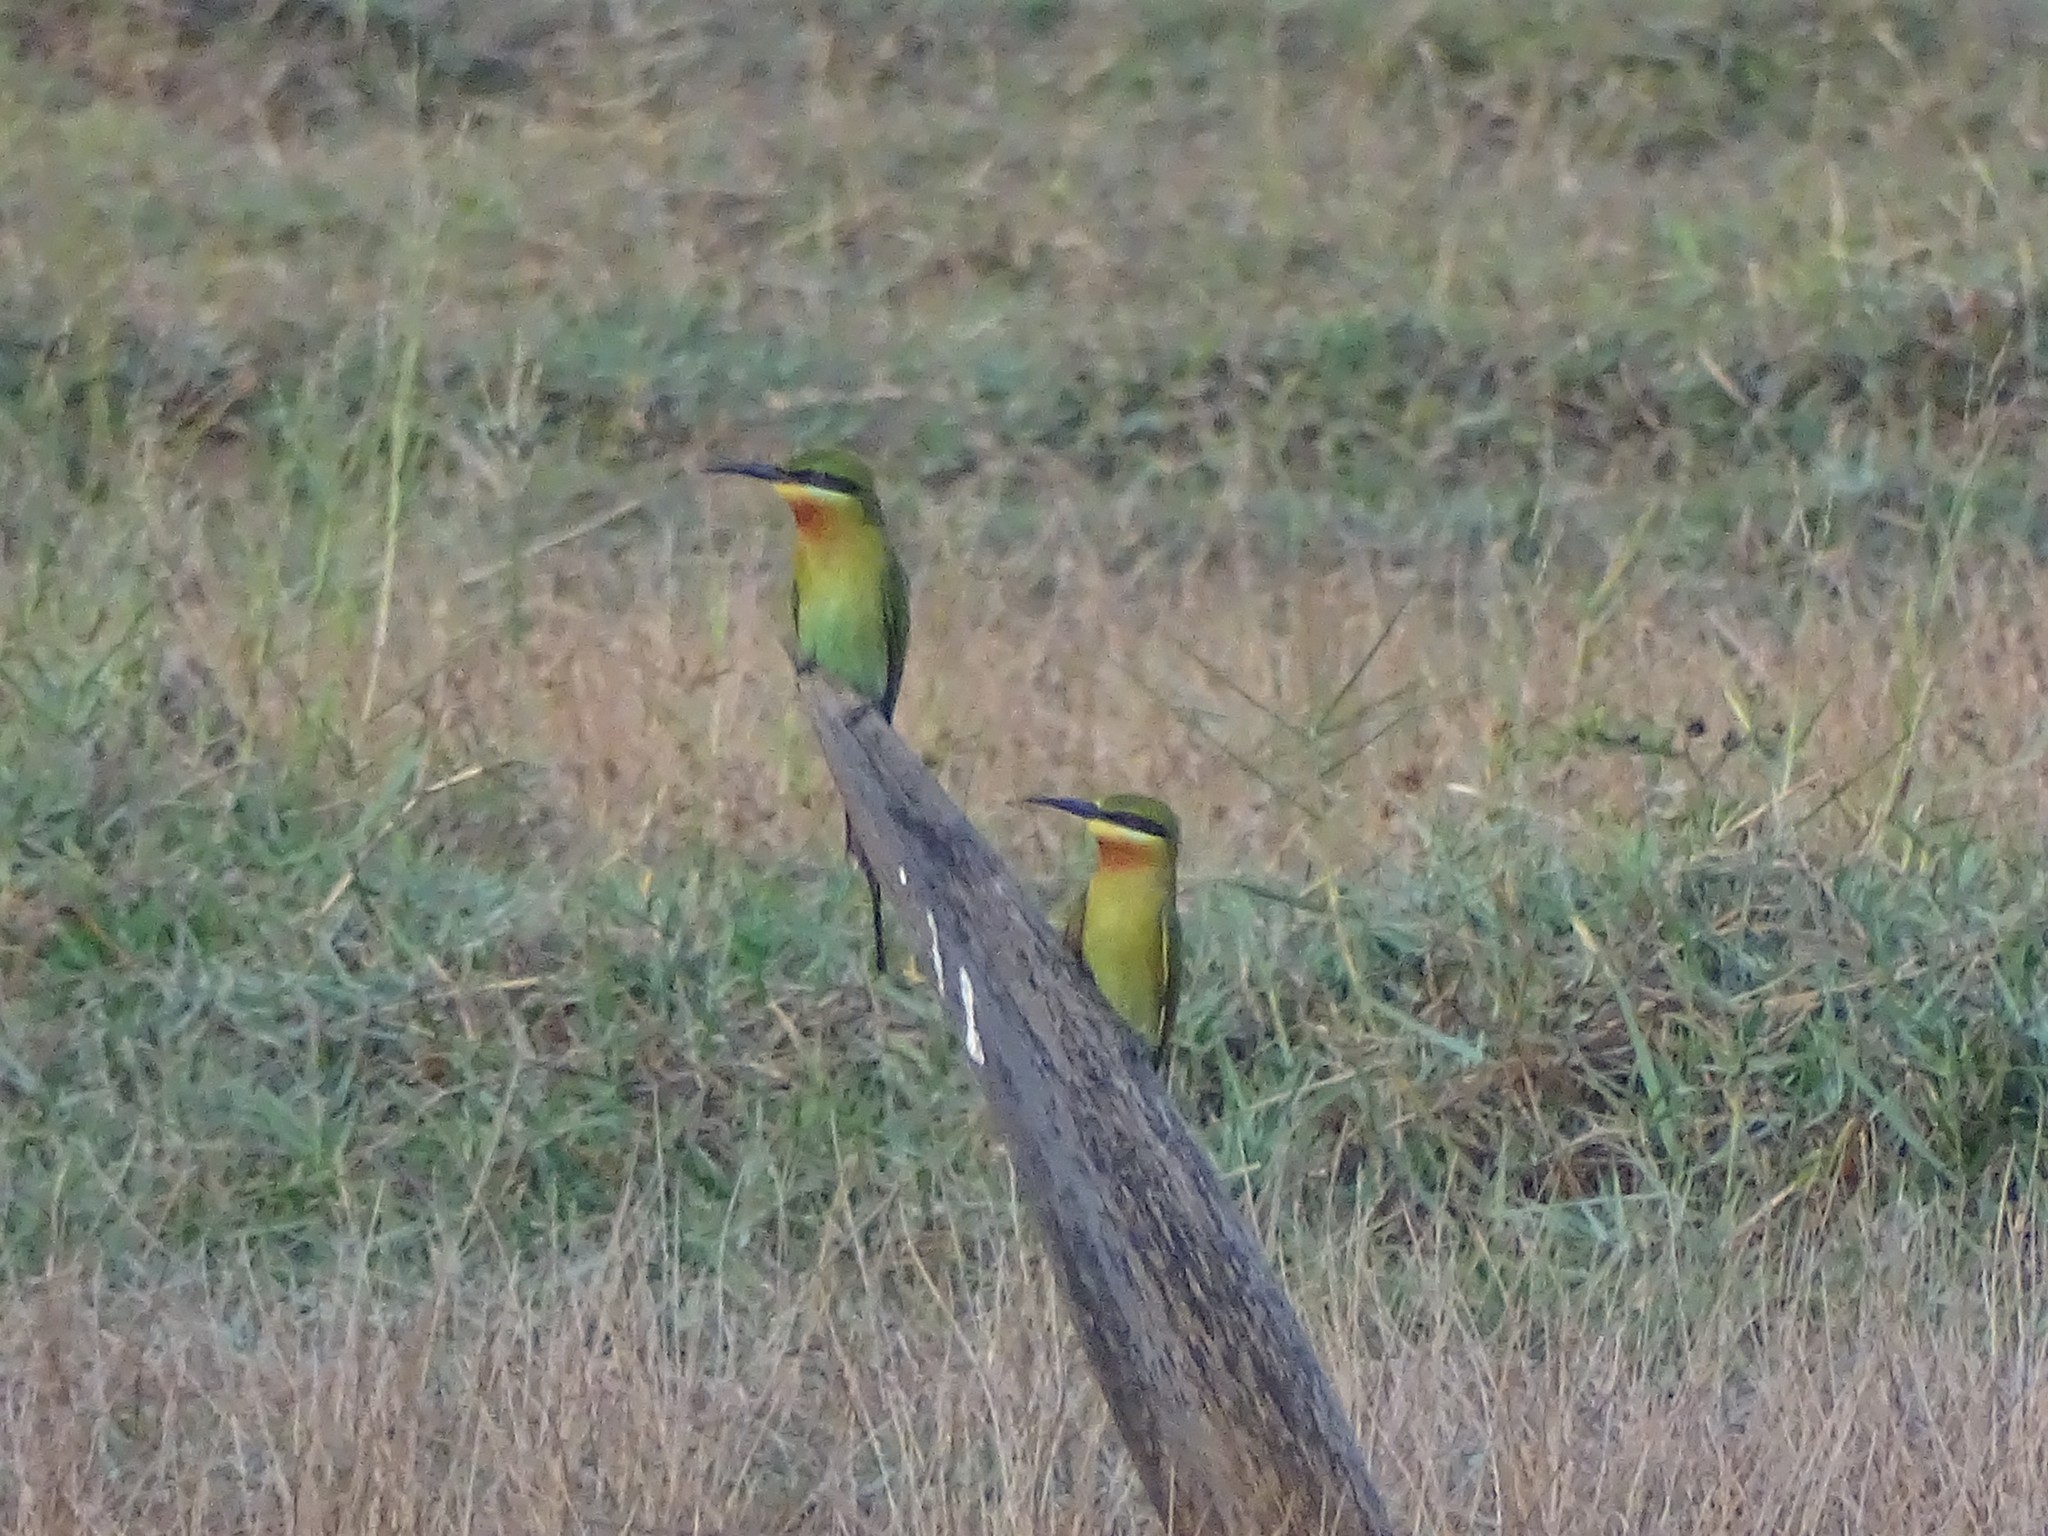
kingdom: Animalia
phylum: Chordata
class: Aves
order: Coraciiformes
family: Meropidae
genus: Merops
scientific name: Merops philippinus
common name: Blue-tailed bee-eater
